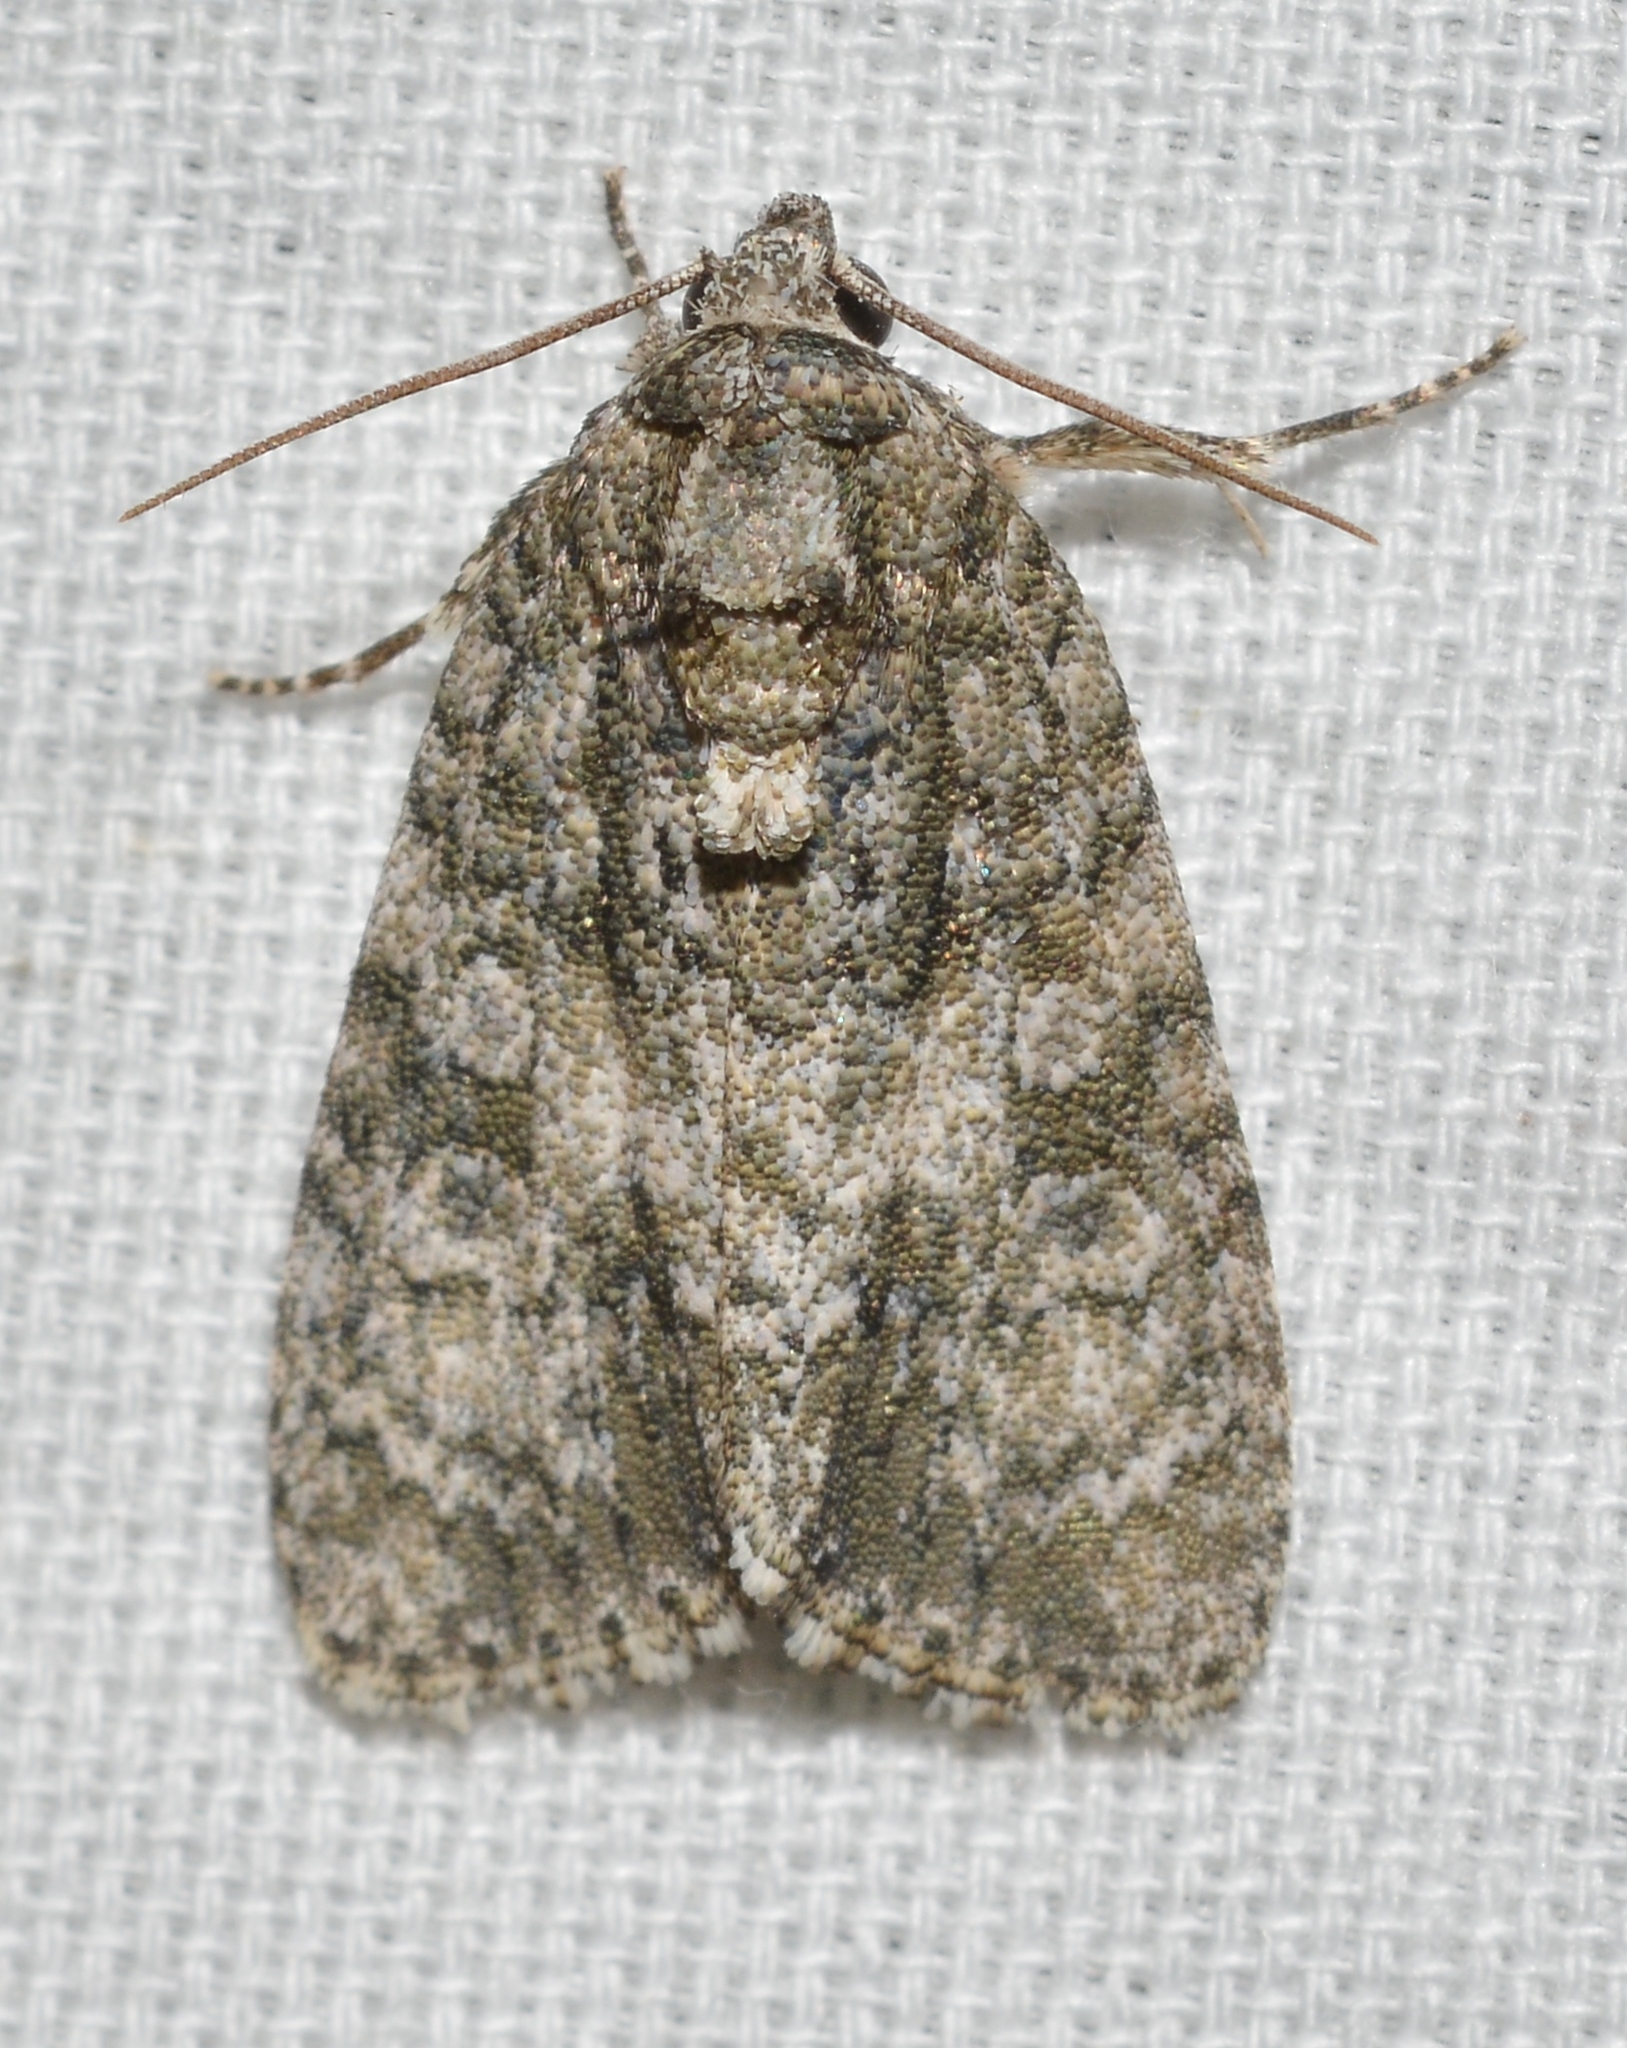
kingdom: Animalia
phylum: Arthropoda
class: Insecta
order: Lepidoptera
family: Noctuidae
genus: Acronicta
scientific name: Acronicta increta
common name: Eclipsed oak dagger
